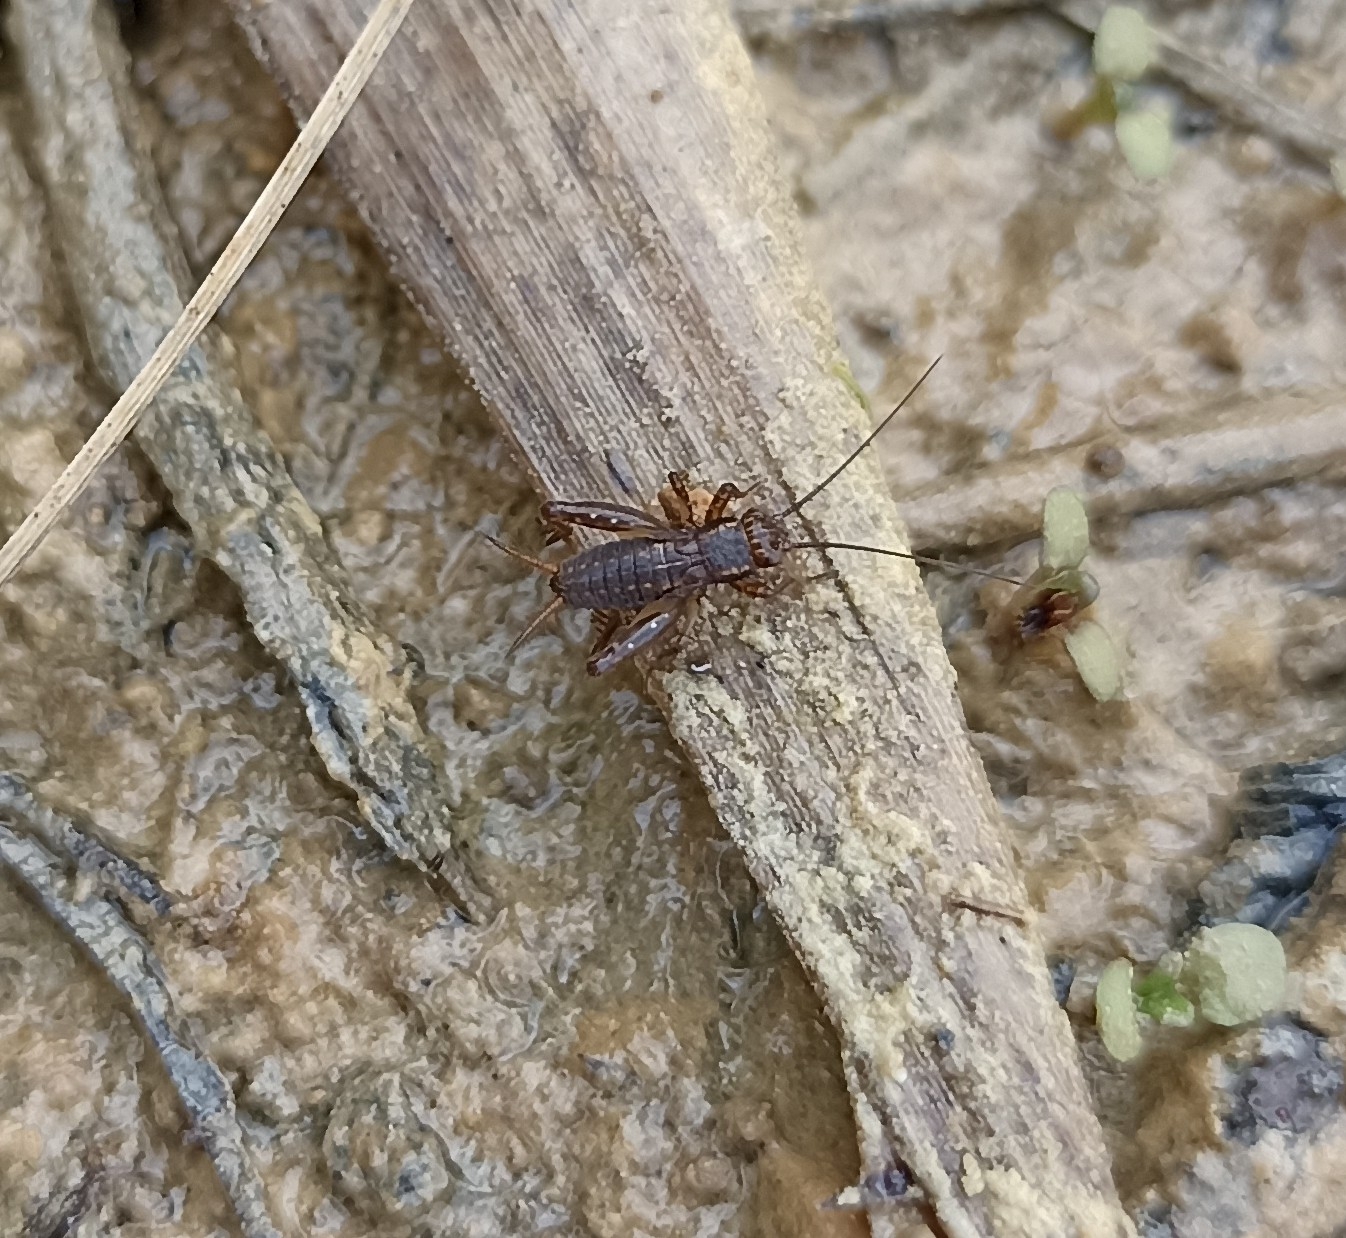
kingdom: Animalia
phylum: Arthropoda
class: Insecta
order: Orthoptera
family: Trigonidiidae
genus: Pteronemobius
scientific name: Pteronemobius heydenii
